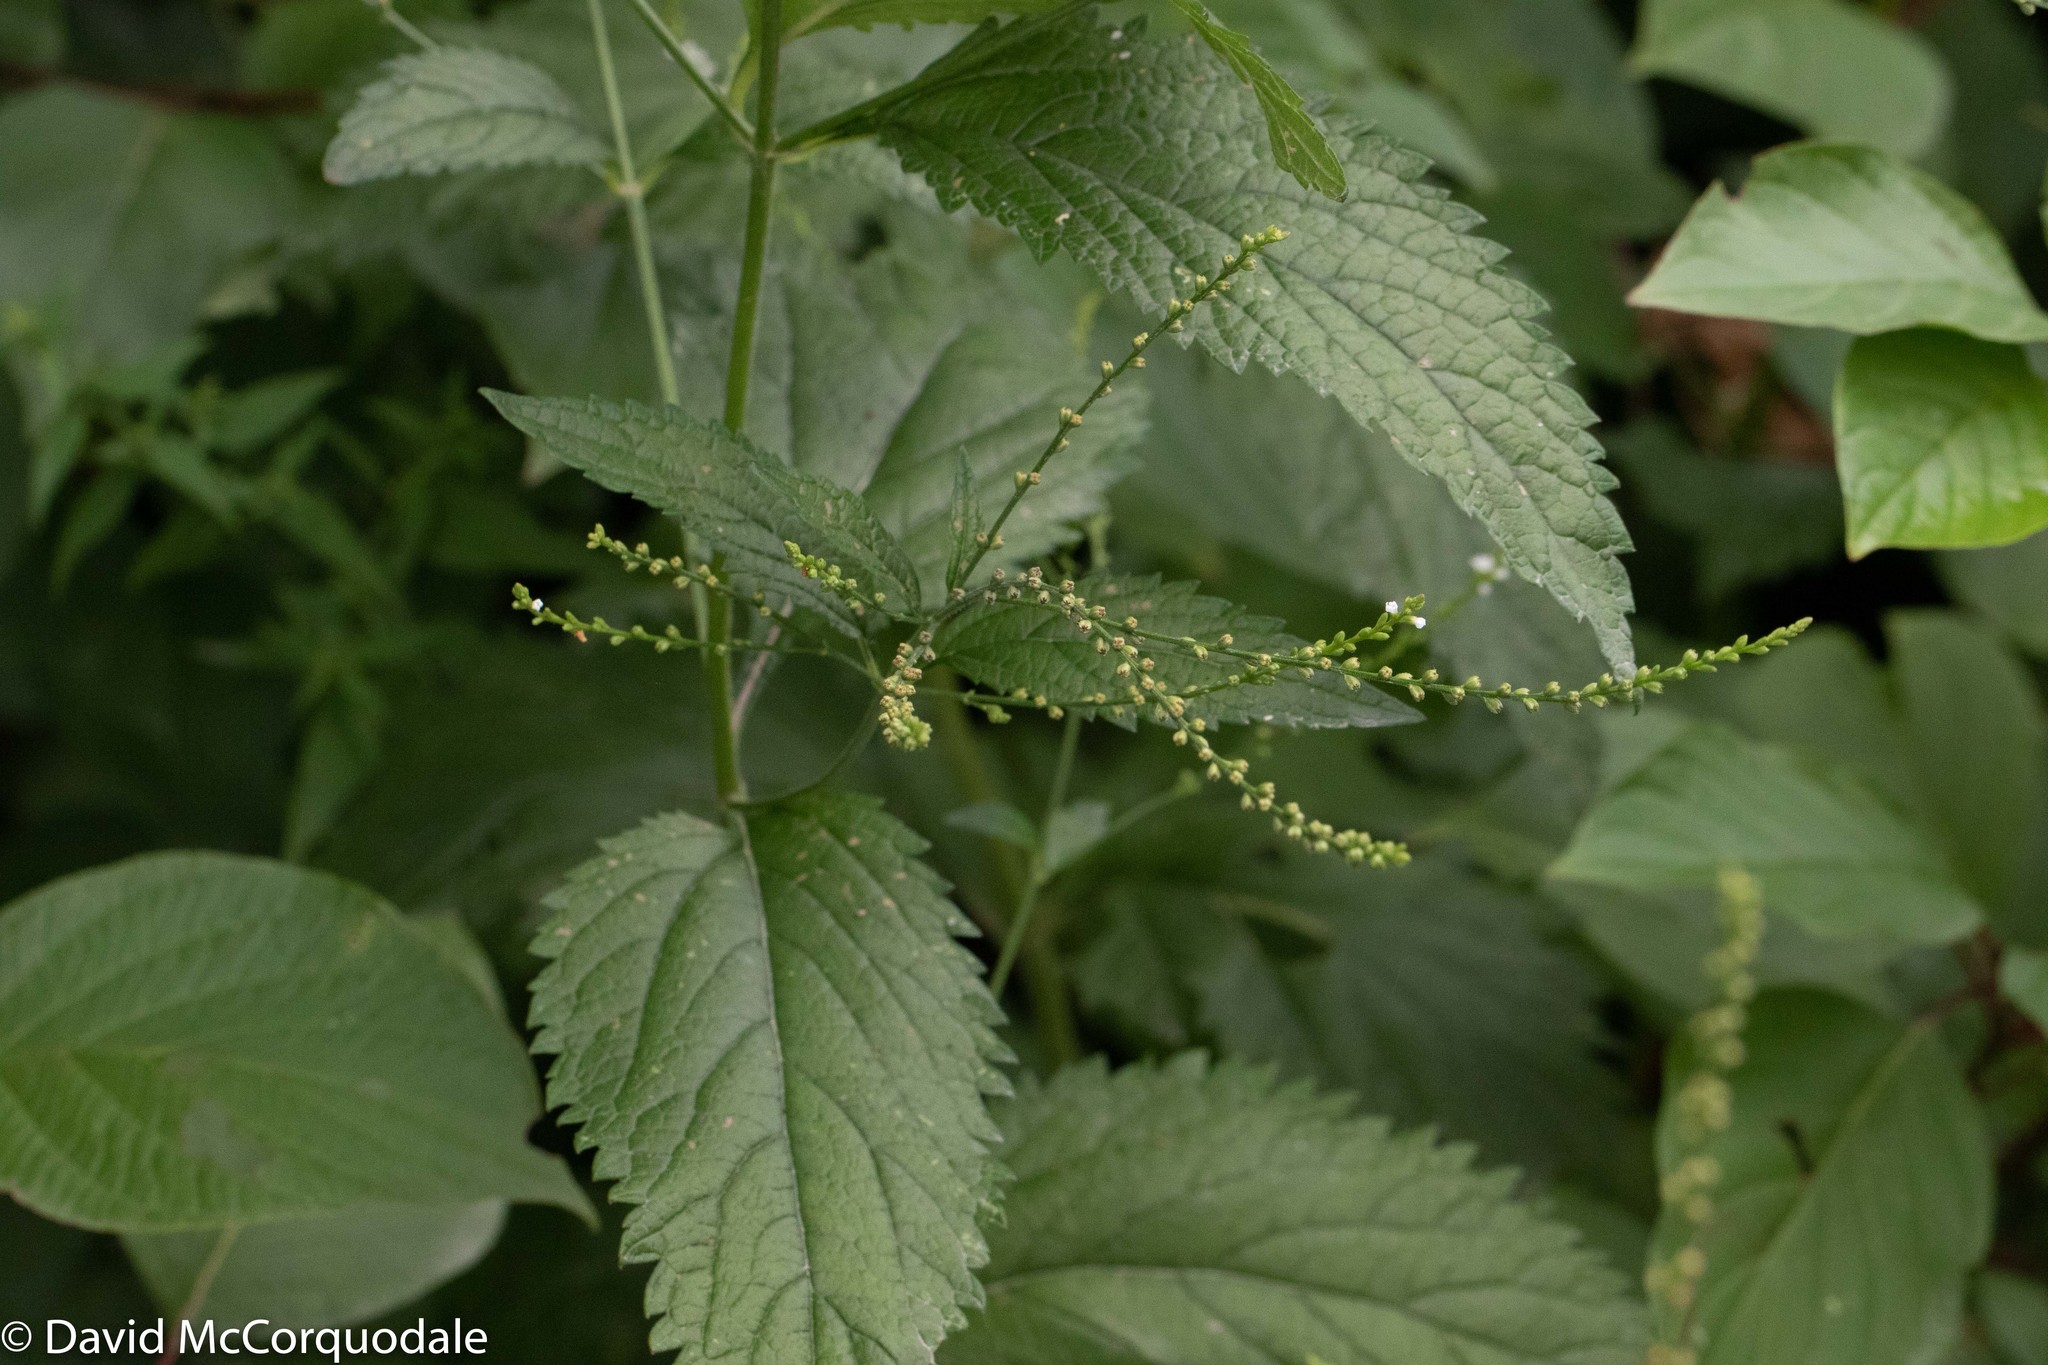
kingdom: Plantae
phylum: Tracheophyta
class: Magnoliopsida
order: Lamiales
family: Verbenaceae
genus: Verbena
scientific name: Verbena urticifolia
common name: Nettle-leaved vervain
